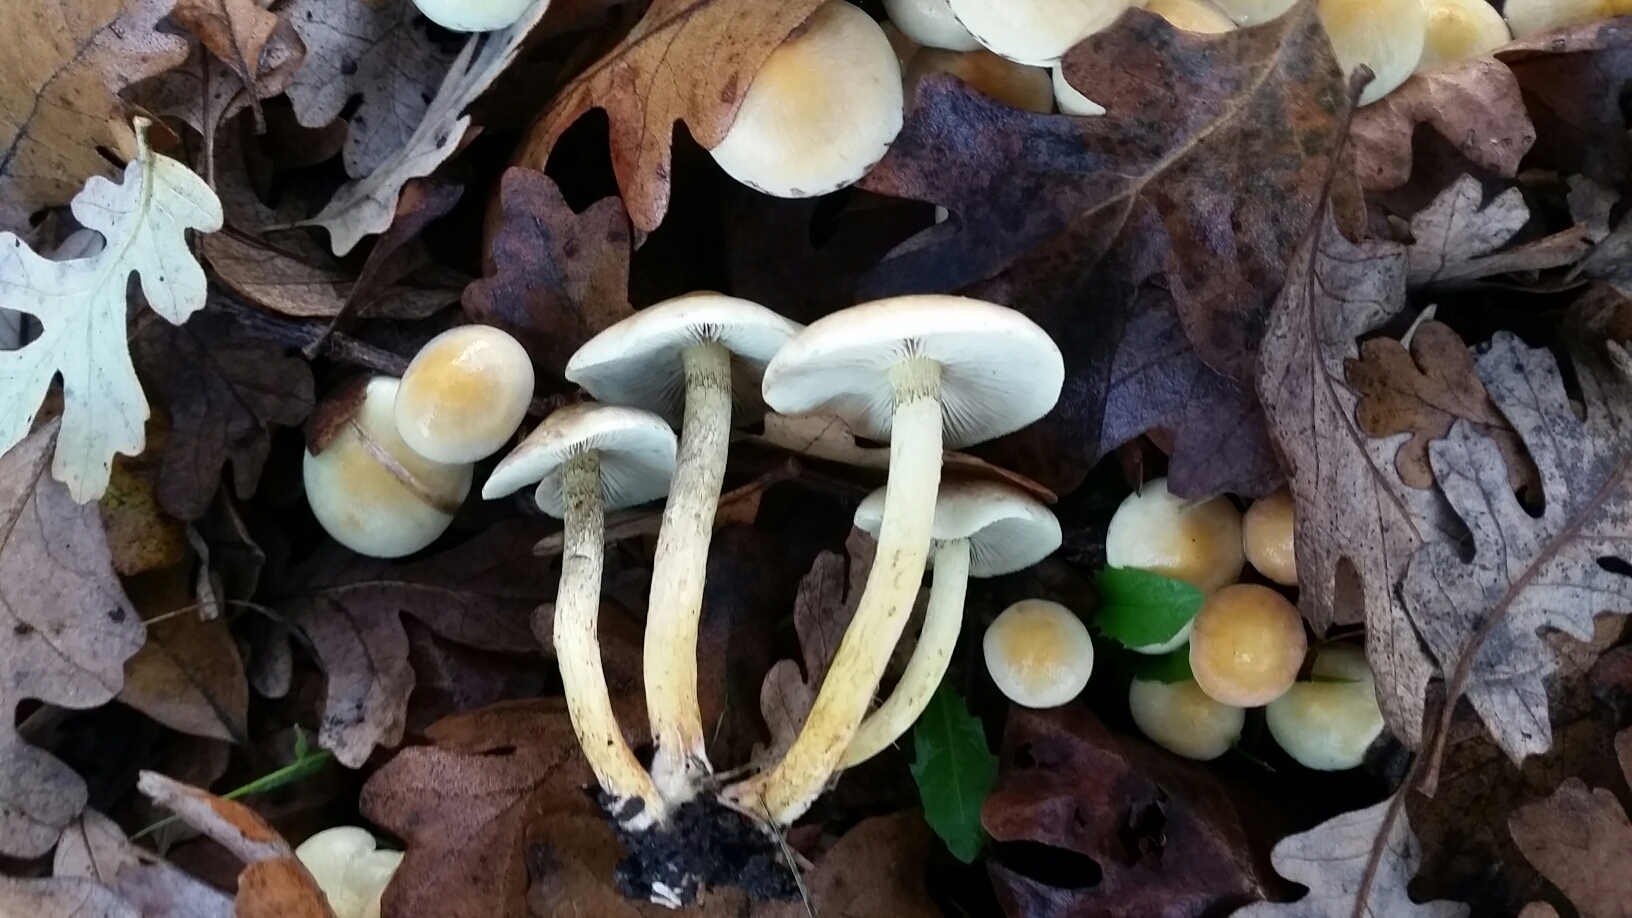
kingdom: Fungi
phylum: Basidiomycota
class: Agaricomycetes
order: Agaricales
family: Strophariaceae
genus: Hypholoma
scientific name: Hypholoma fasciculare
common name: Sulphur tuft
